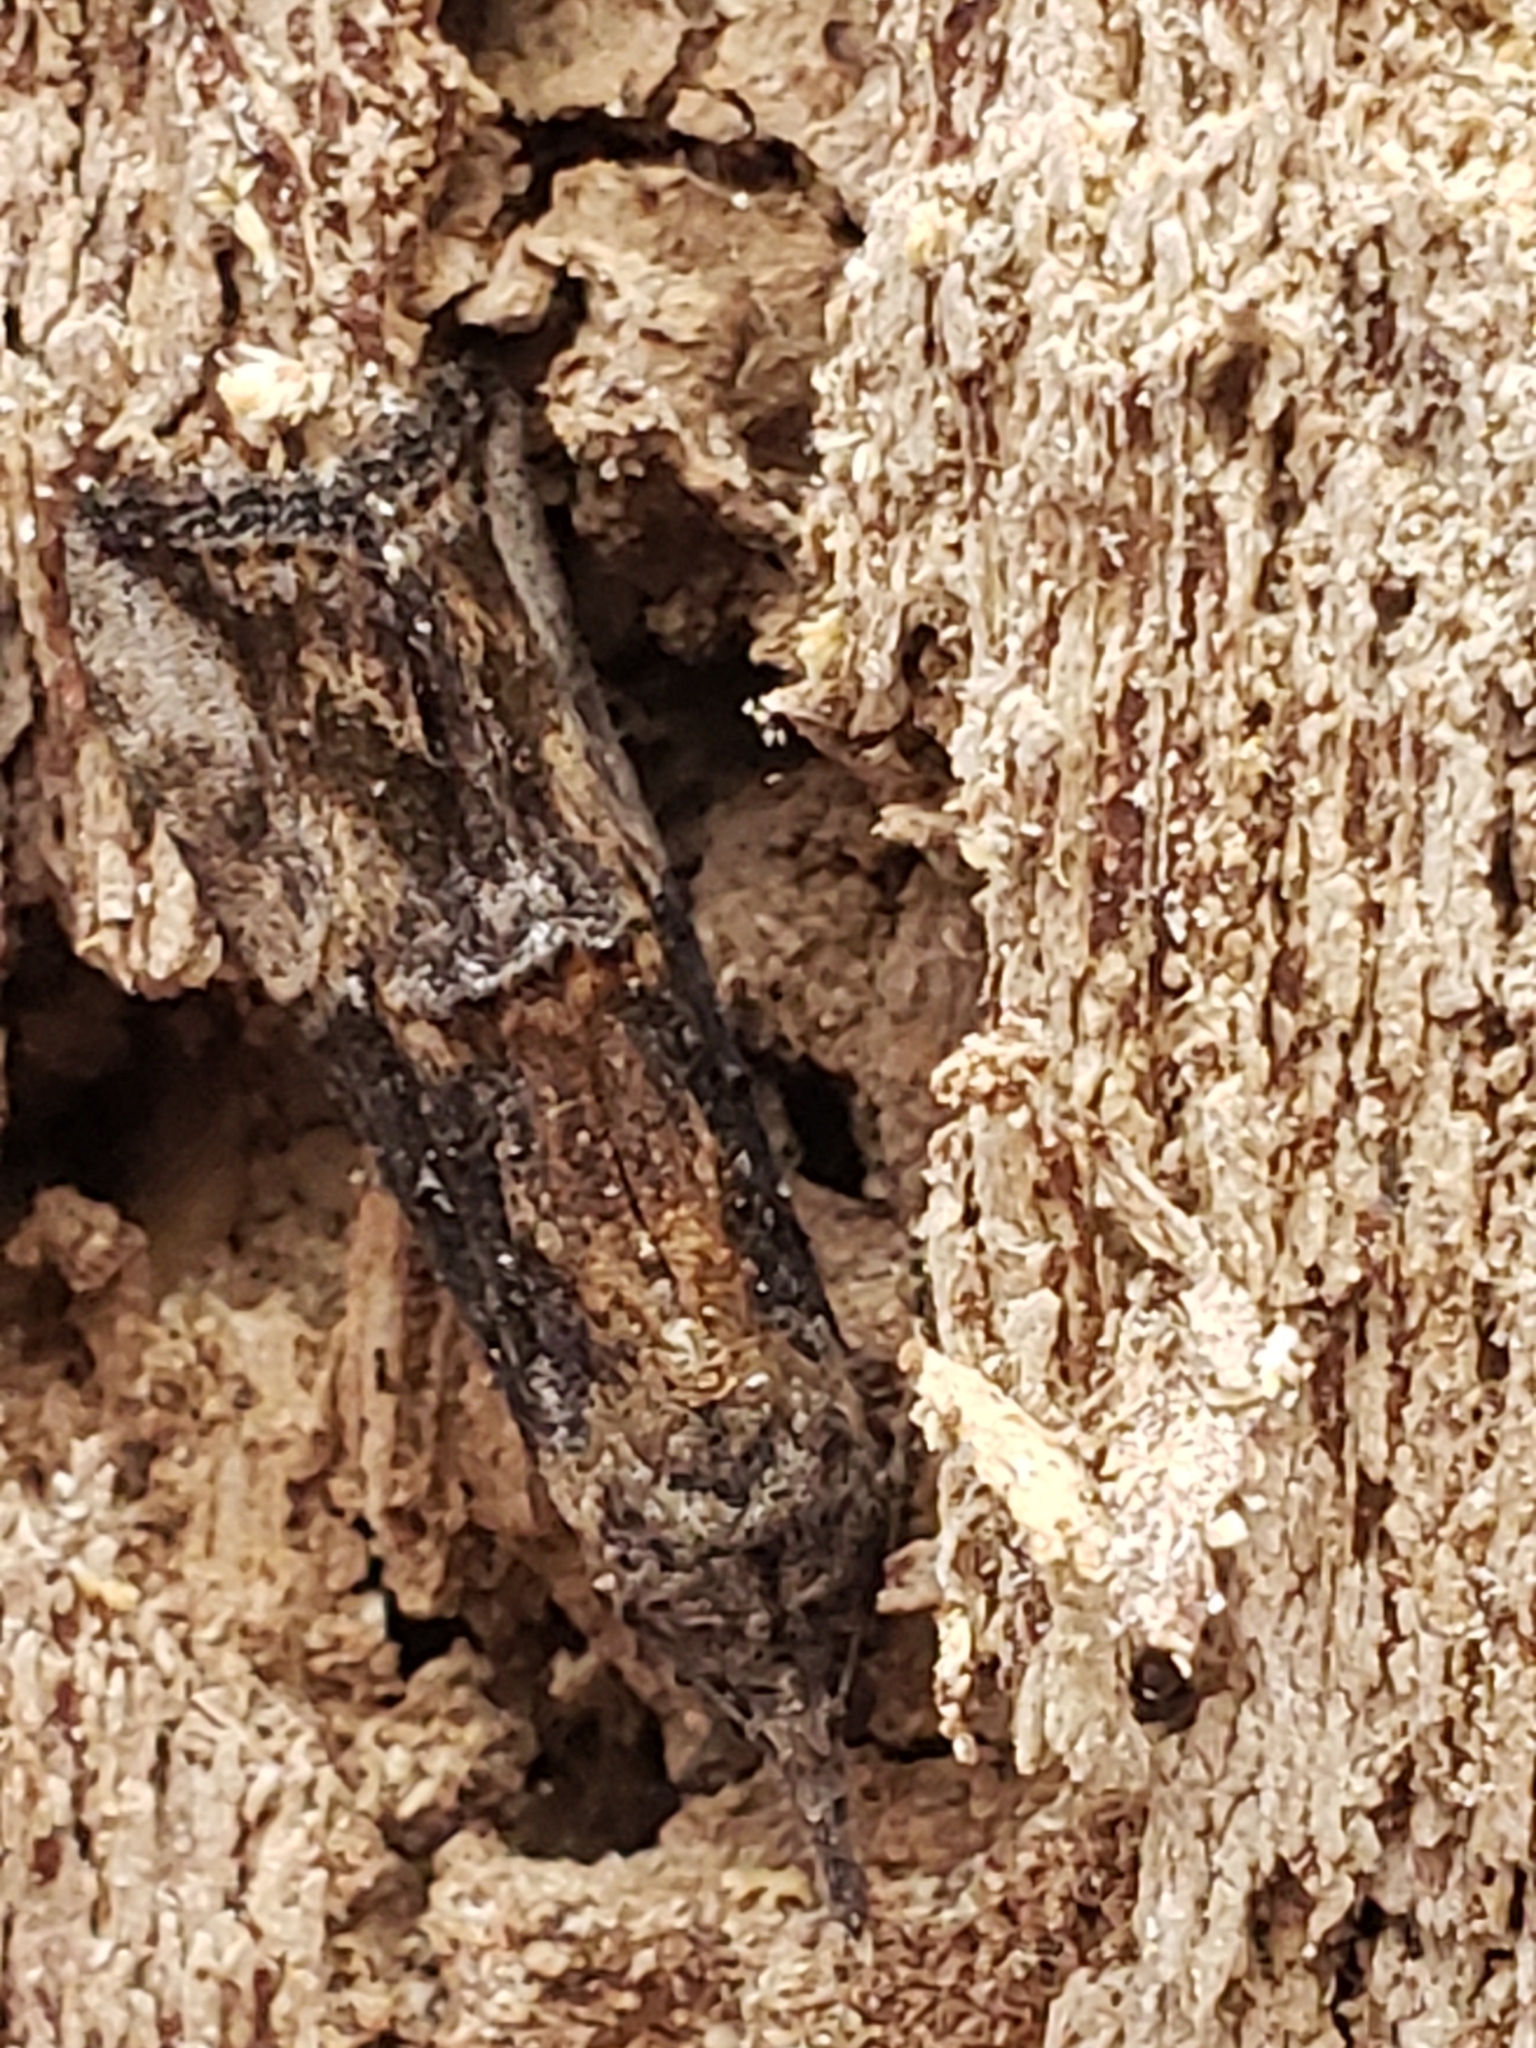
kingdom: Animalia
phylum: Arthropoda
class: Insecta
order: Lepidoptera
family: Erebidae
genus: Hypena
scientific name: Hypena scabra
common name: Green cloverworm
